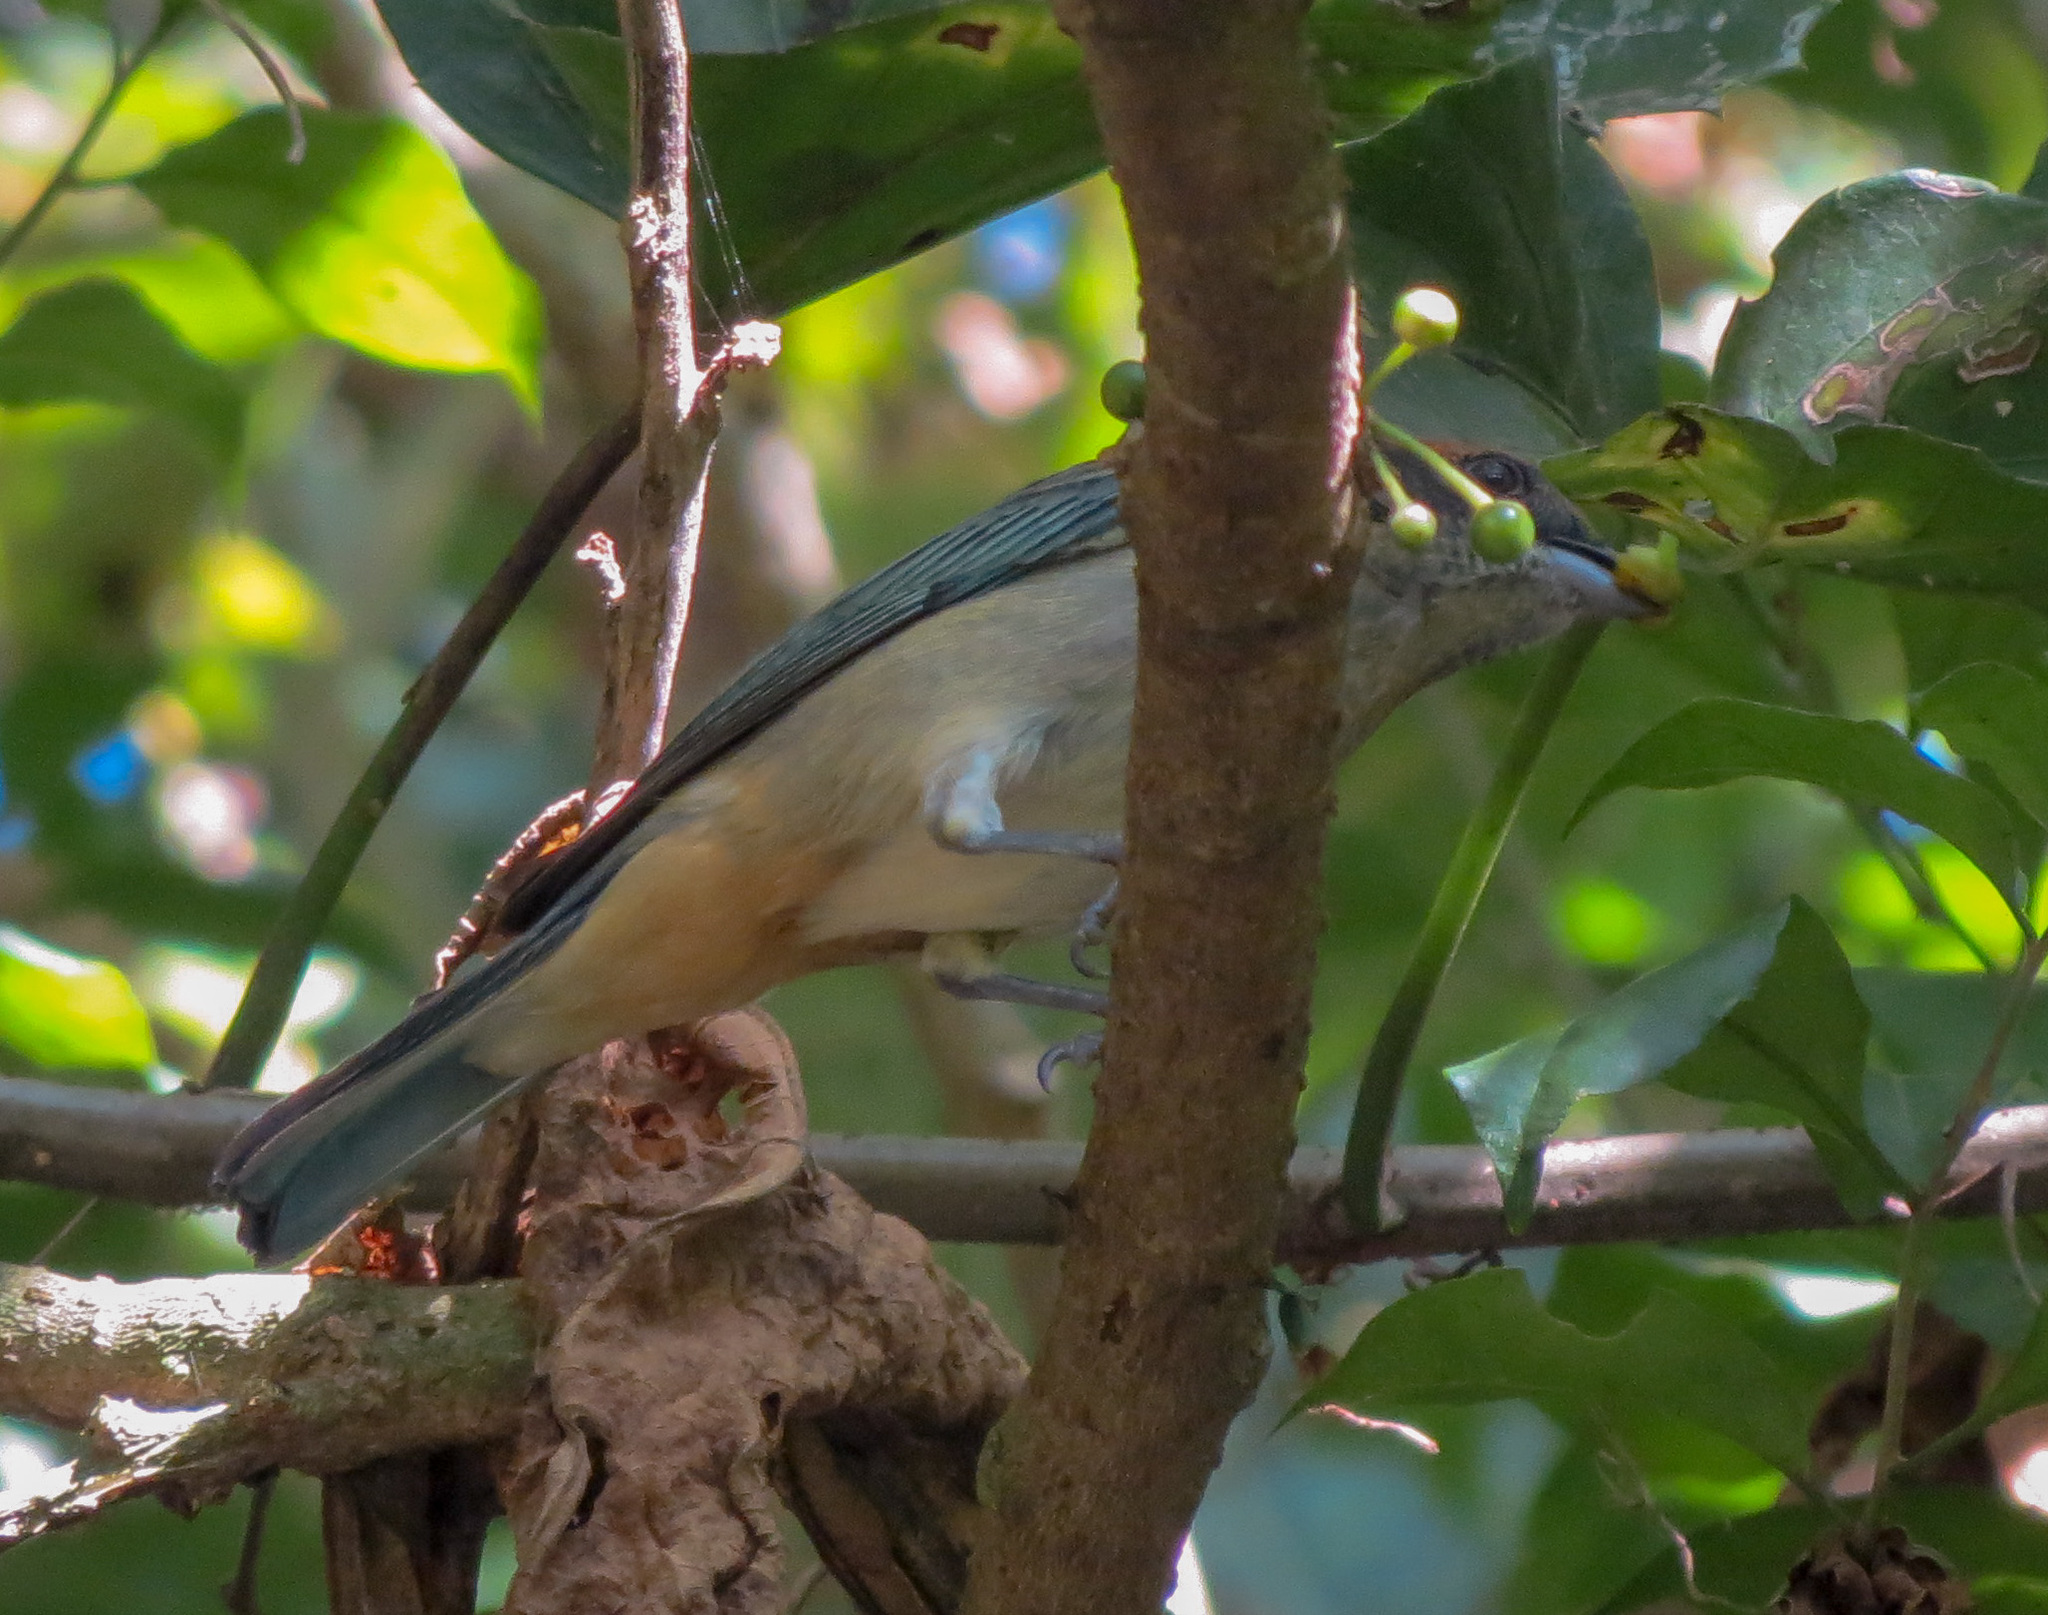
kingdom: Animalia
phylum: Chordata
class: Aves
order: Passeriformes
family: Thraupidae
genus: Stilpnia
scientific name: Stilpnia vitriolina
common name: Scrub tanager
